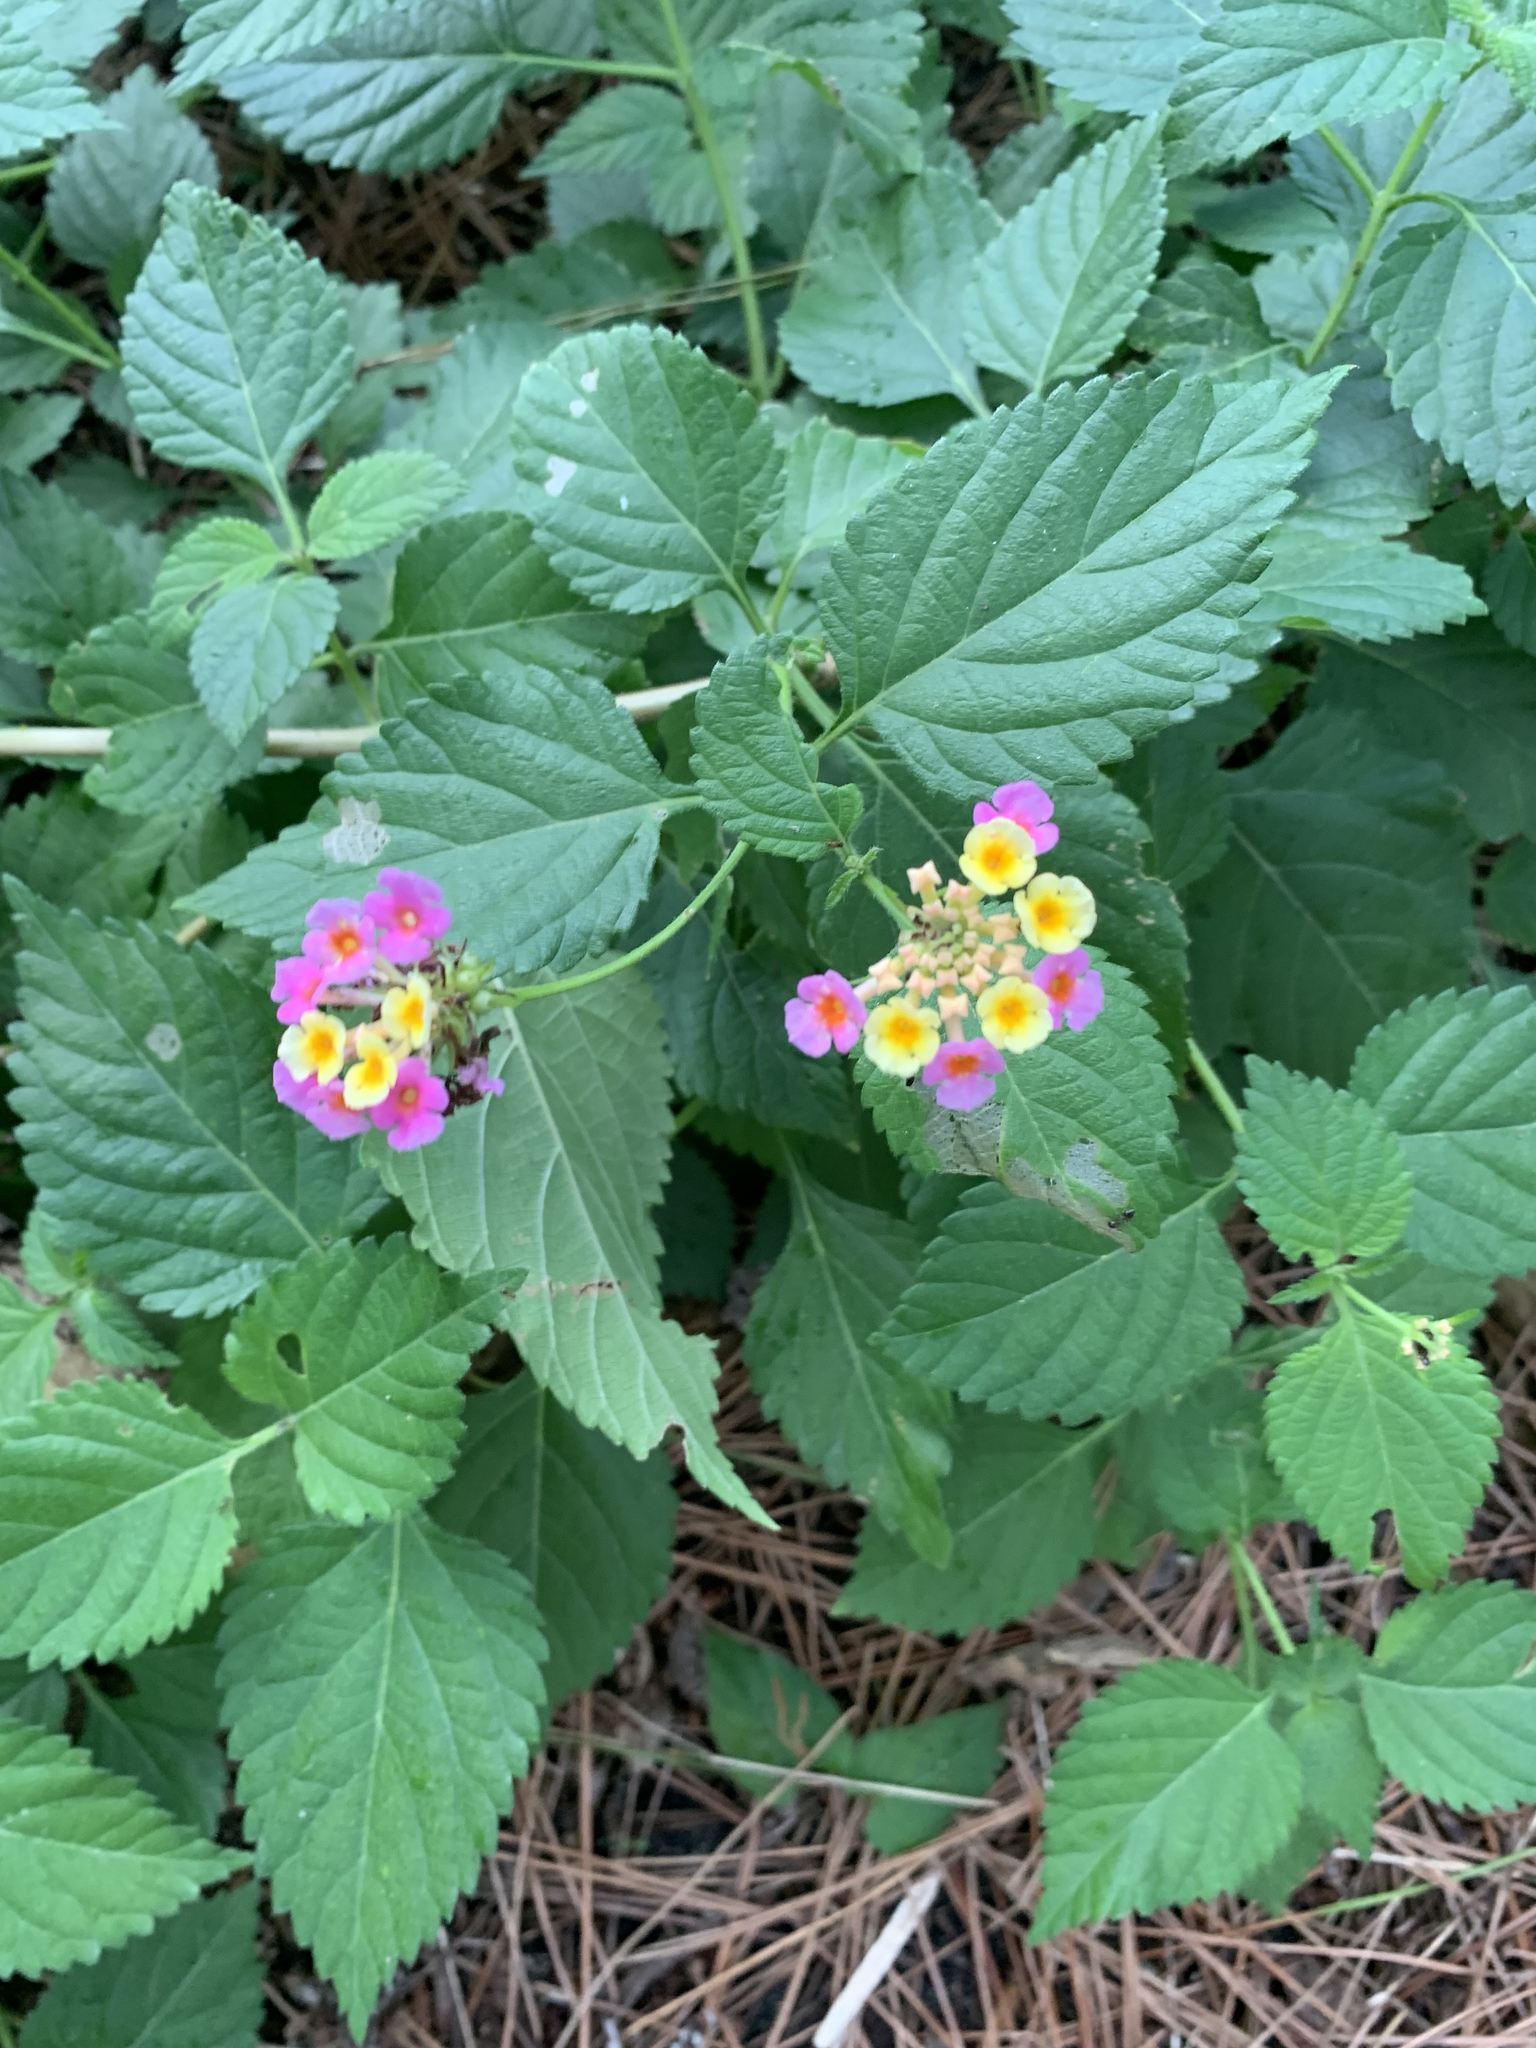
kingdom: Plantae
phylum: Tracheophyta
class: Magnoliopsida
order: Lamiales
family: Verbenaceae
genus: Lantana
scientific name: Lantana camara
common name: Lantana
